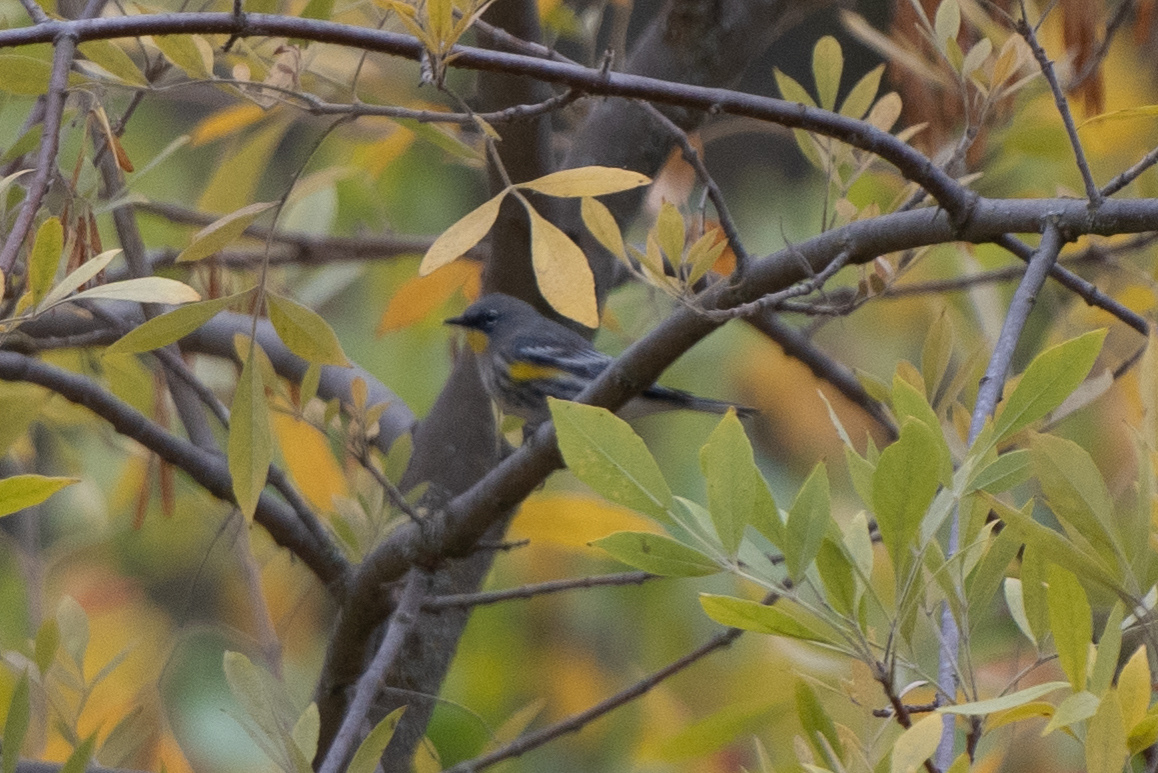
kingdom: Animalia
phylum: Chordata
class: Aves
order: Passeriformes
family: Parulidae
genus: Setophaga
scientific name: Setophaga coronata
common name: Myrtle warbler
